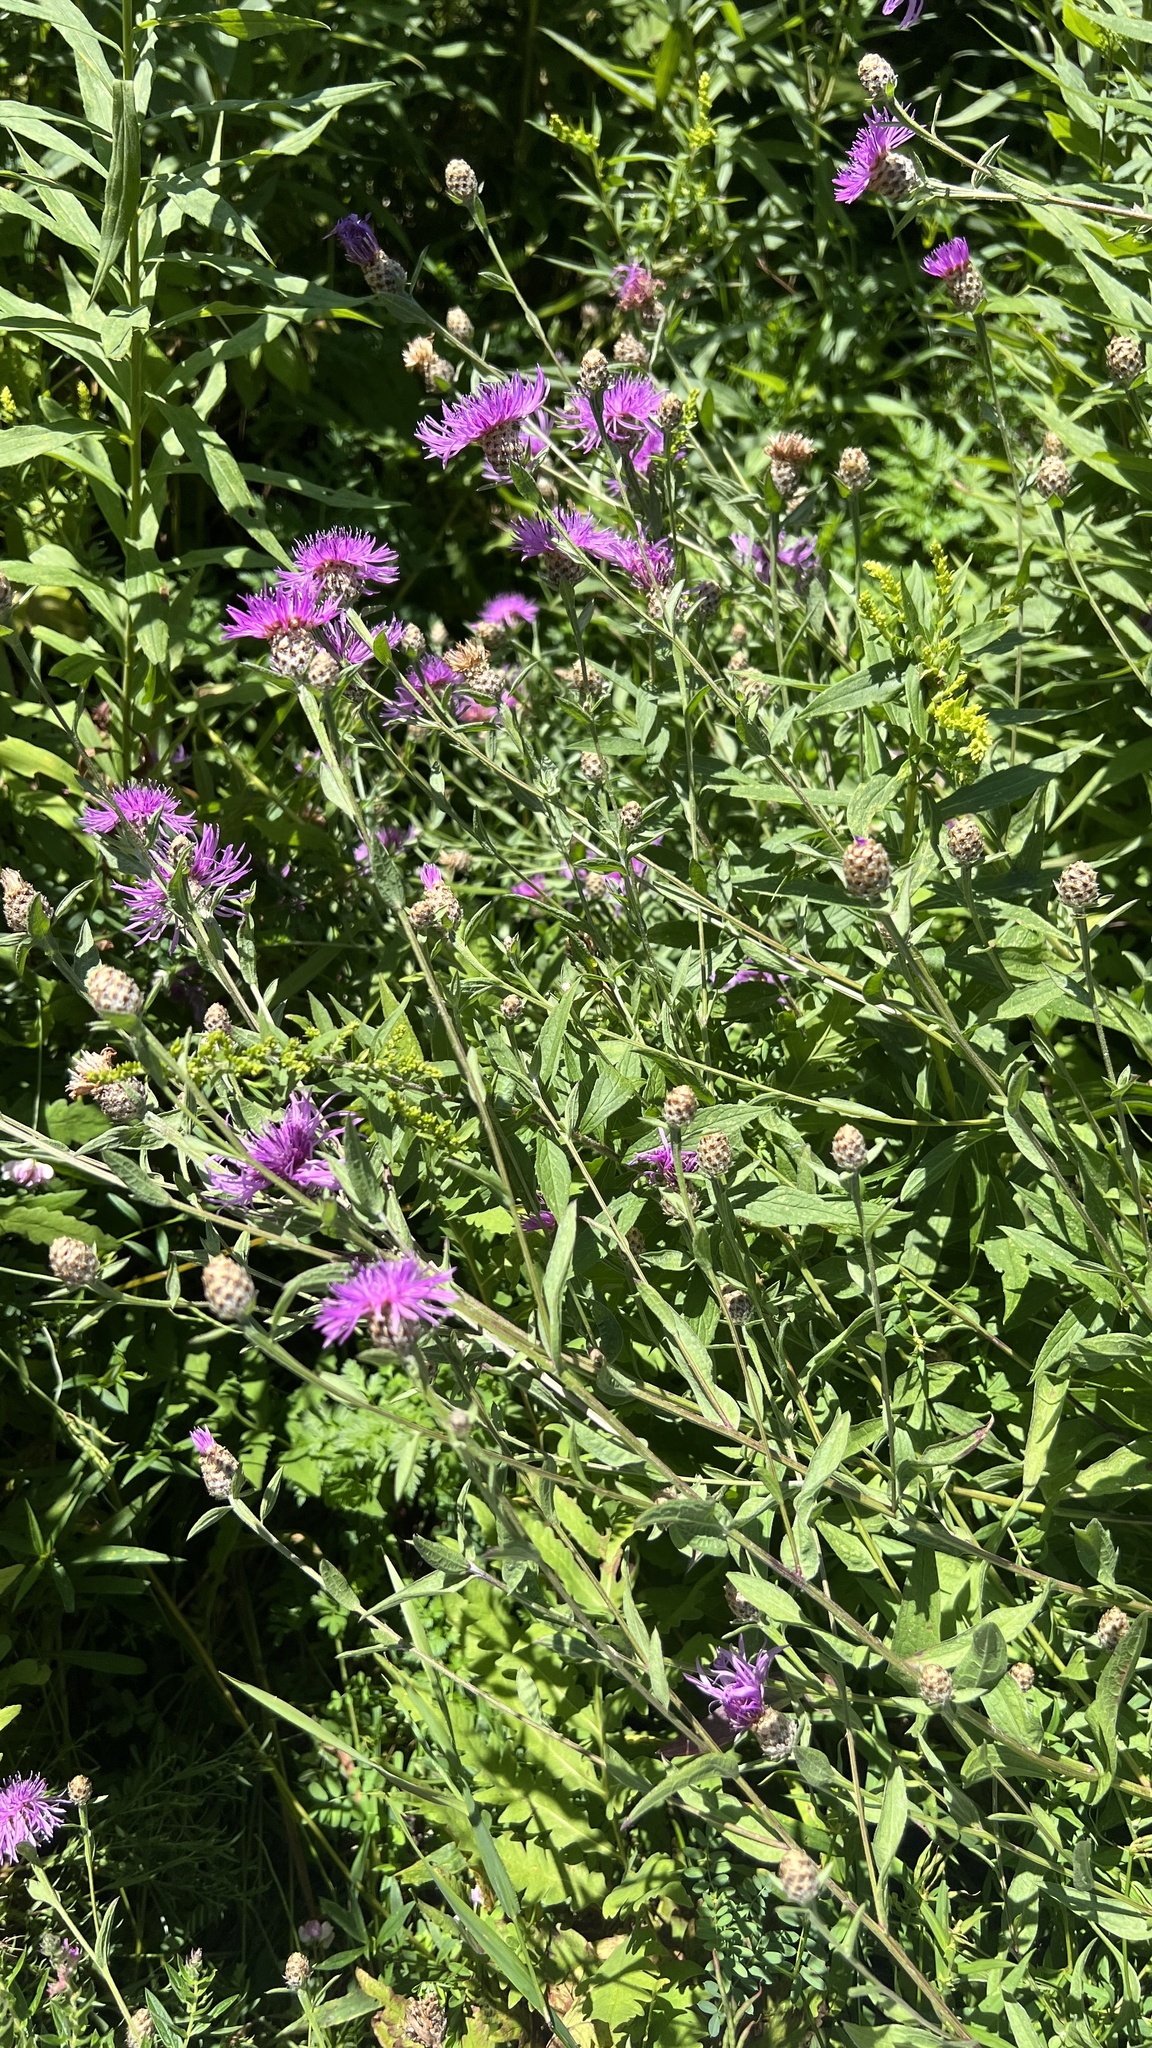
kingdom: Plantae
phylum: Tracheophyta
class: Magnoliopsida
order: Asterales
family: Asteraceae
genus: Centaurea
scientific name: Centaurea nigrescens
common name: Tyrol knapweed
